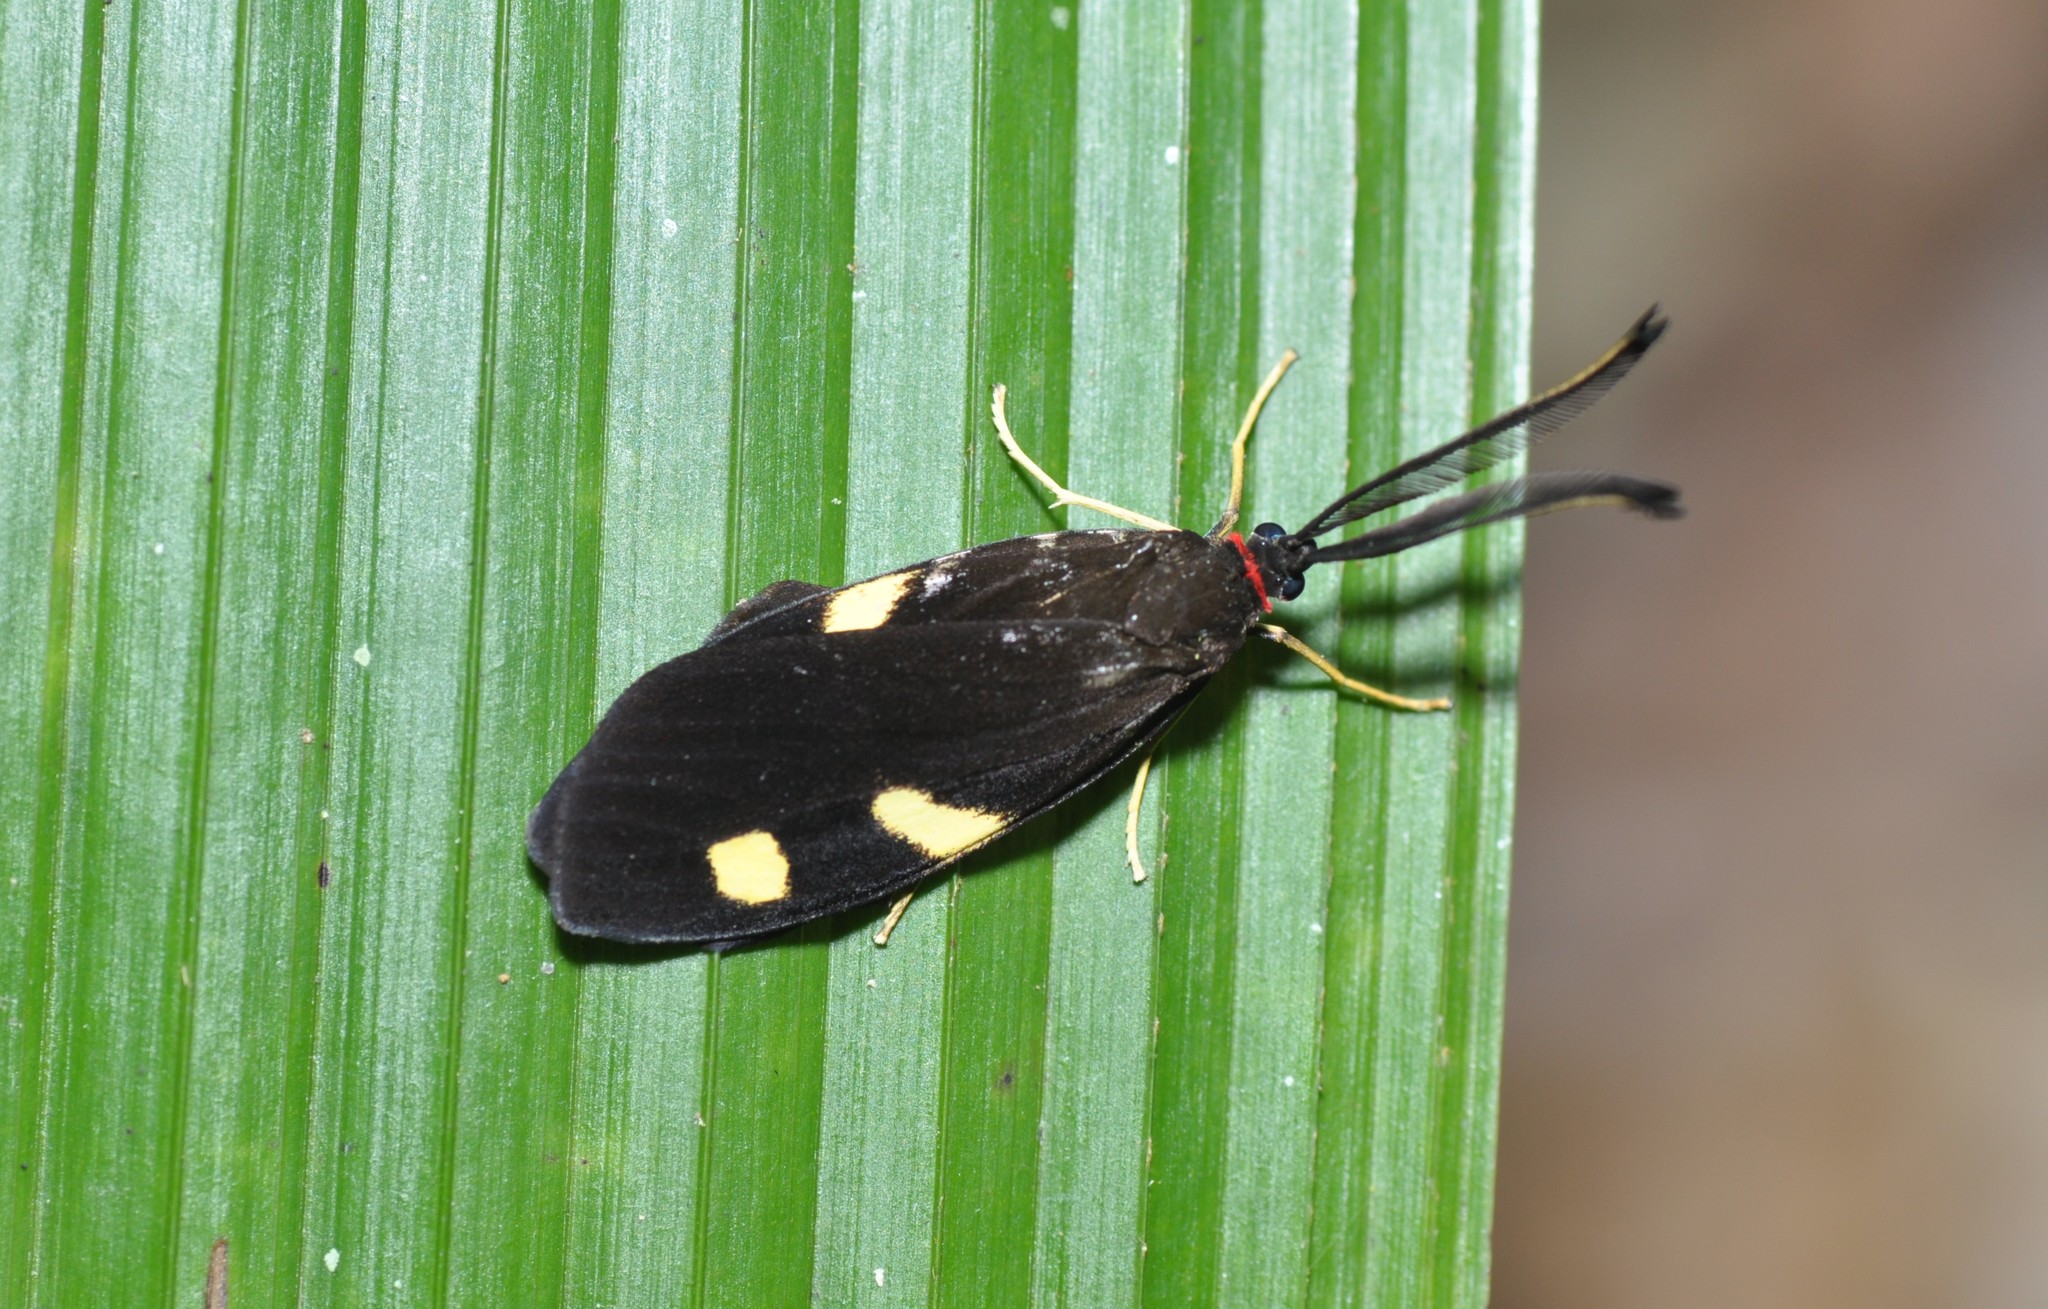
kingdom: Animalia
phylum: Arthropoda
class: Insecta
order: Lepidoptera
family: Zygaenidae
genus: Soritia
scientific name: Soritia costimacula
